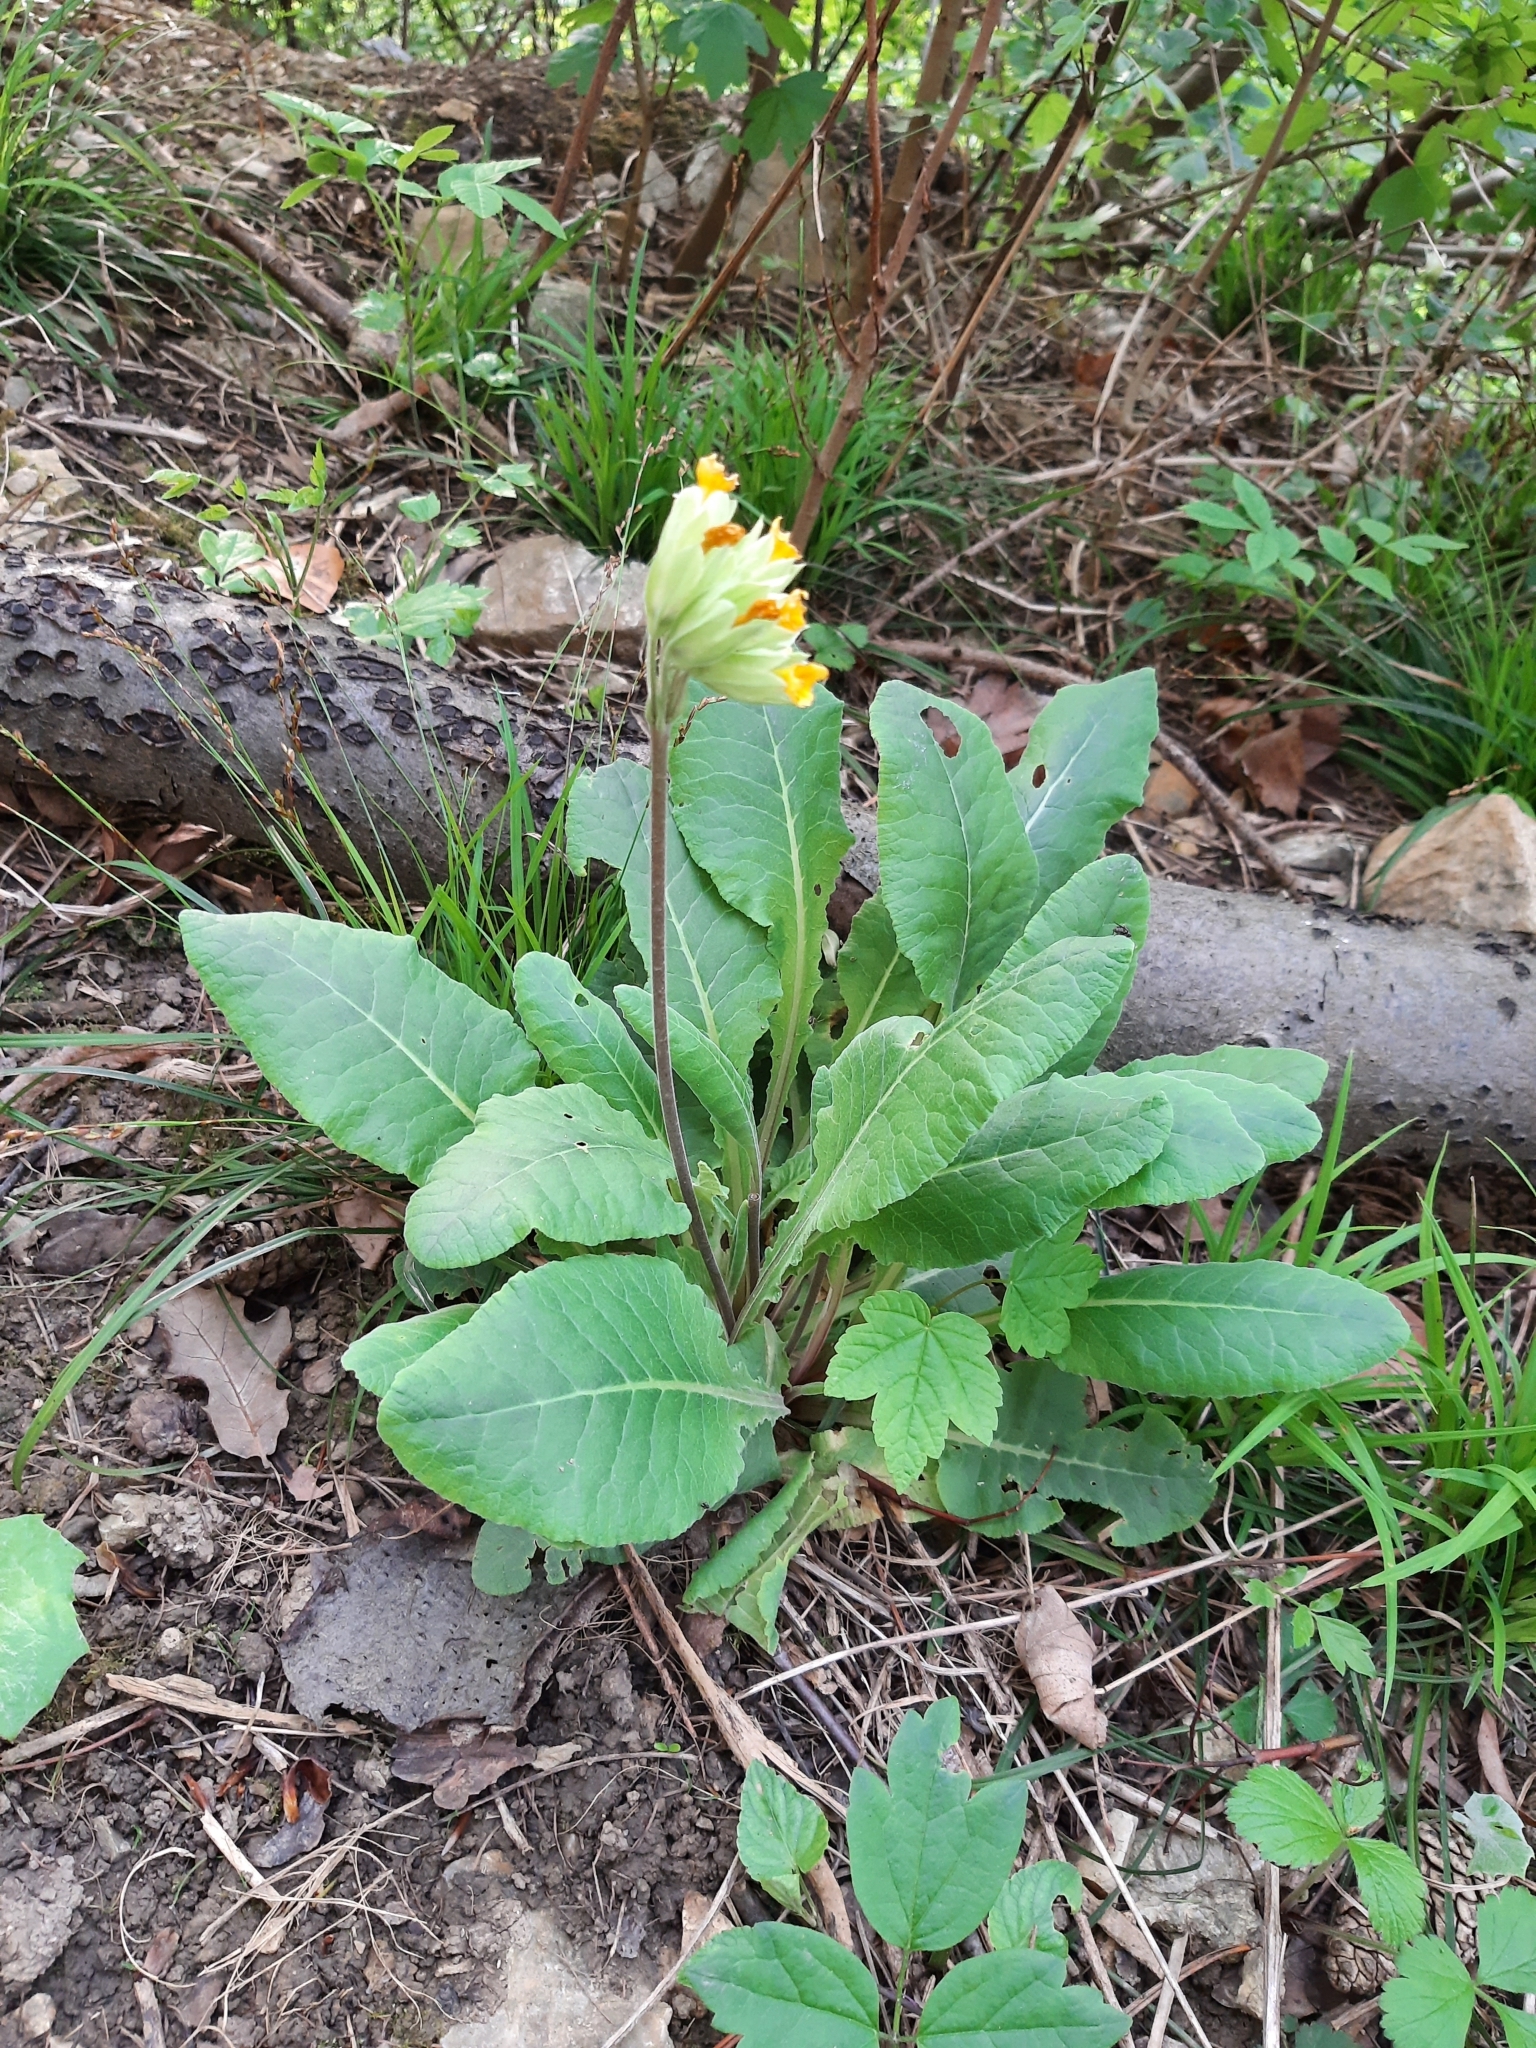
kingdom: Plantae
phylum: Tracheophyta
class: Magnoliopsida
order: Ericales
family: Primulaceae
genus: Primula
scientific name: Primula veris
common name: Cowslip
